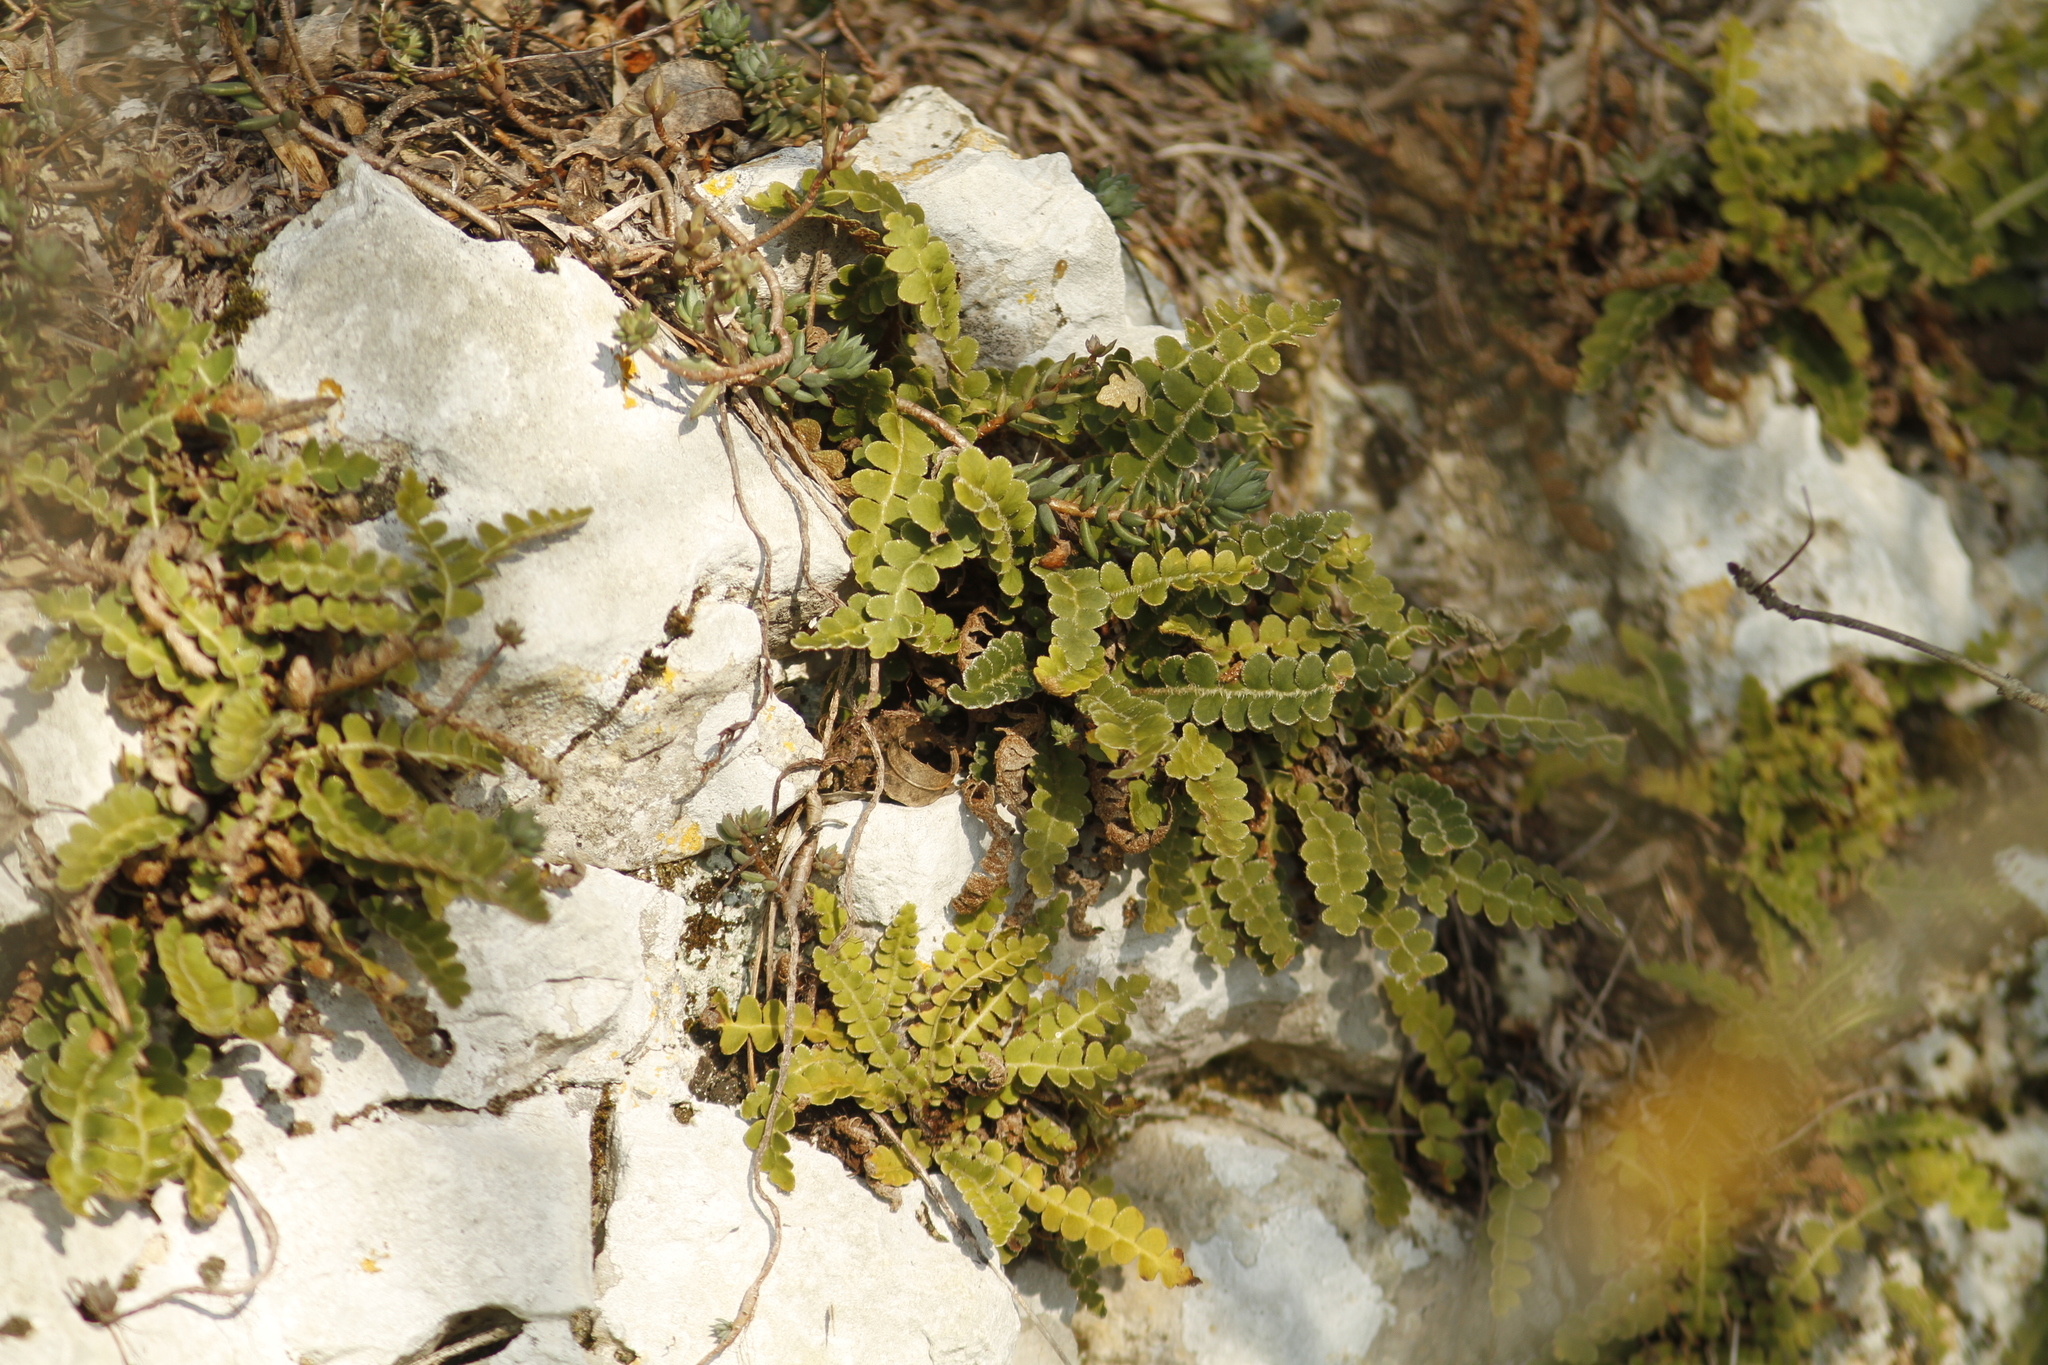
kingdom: Plantae
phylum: Tracheophyta
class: Polypodiopsida
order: Polypodiales
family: Aspleniaceae
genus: Asplenium
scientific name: Asplenium ceterach
